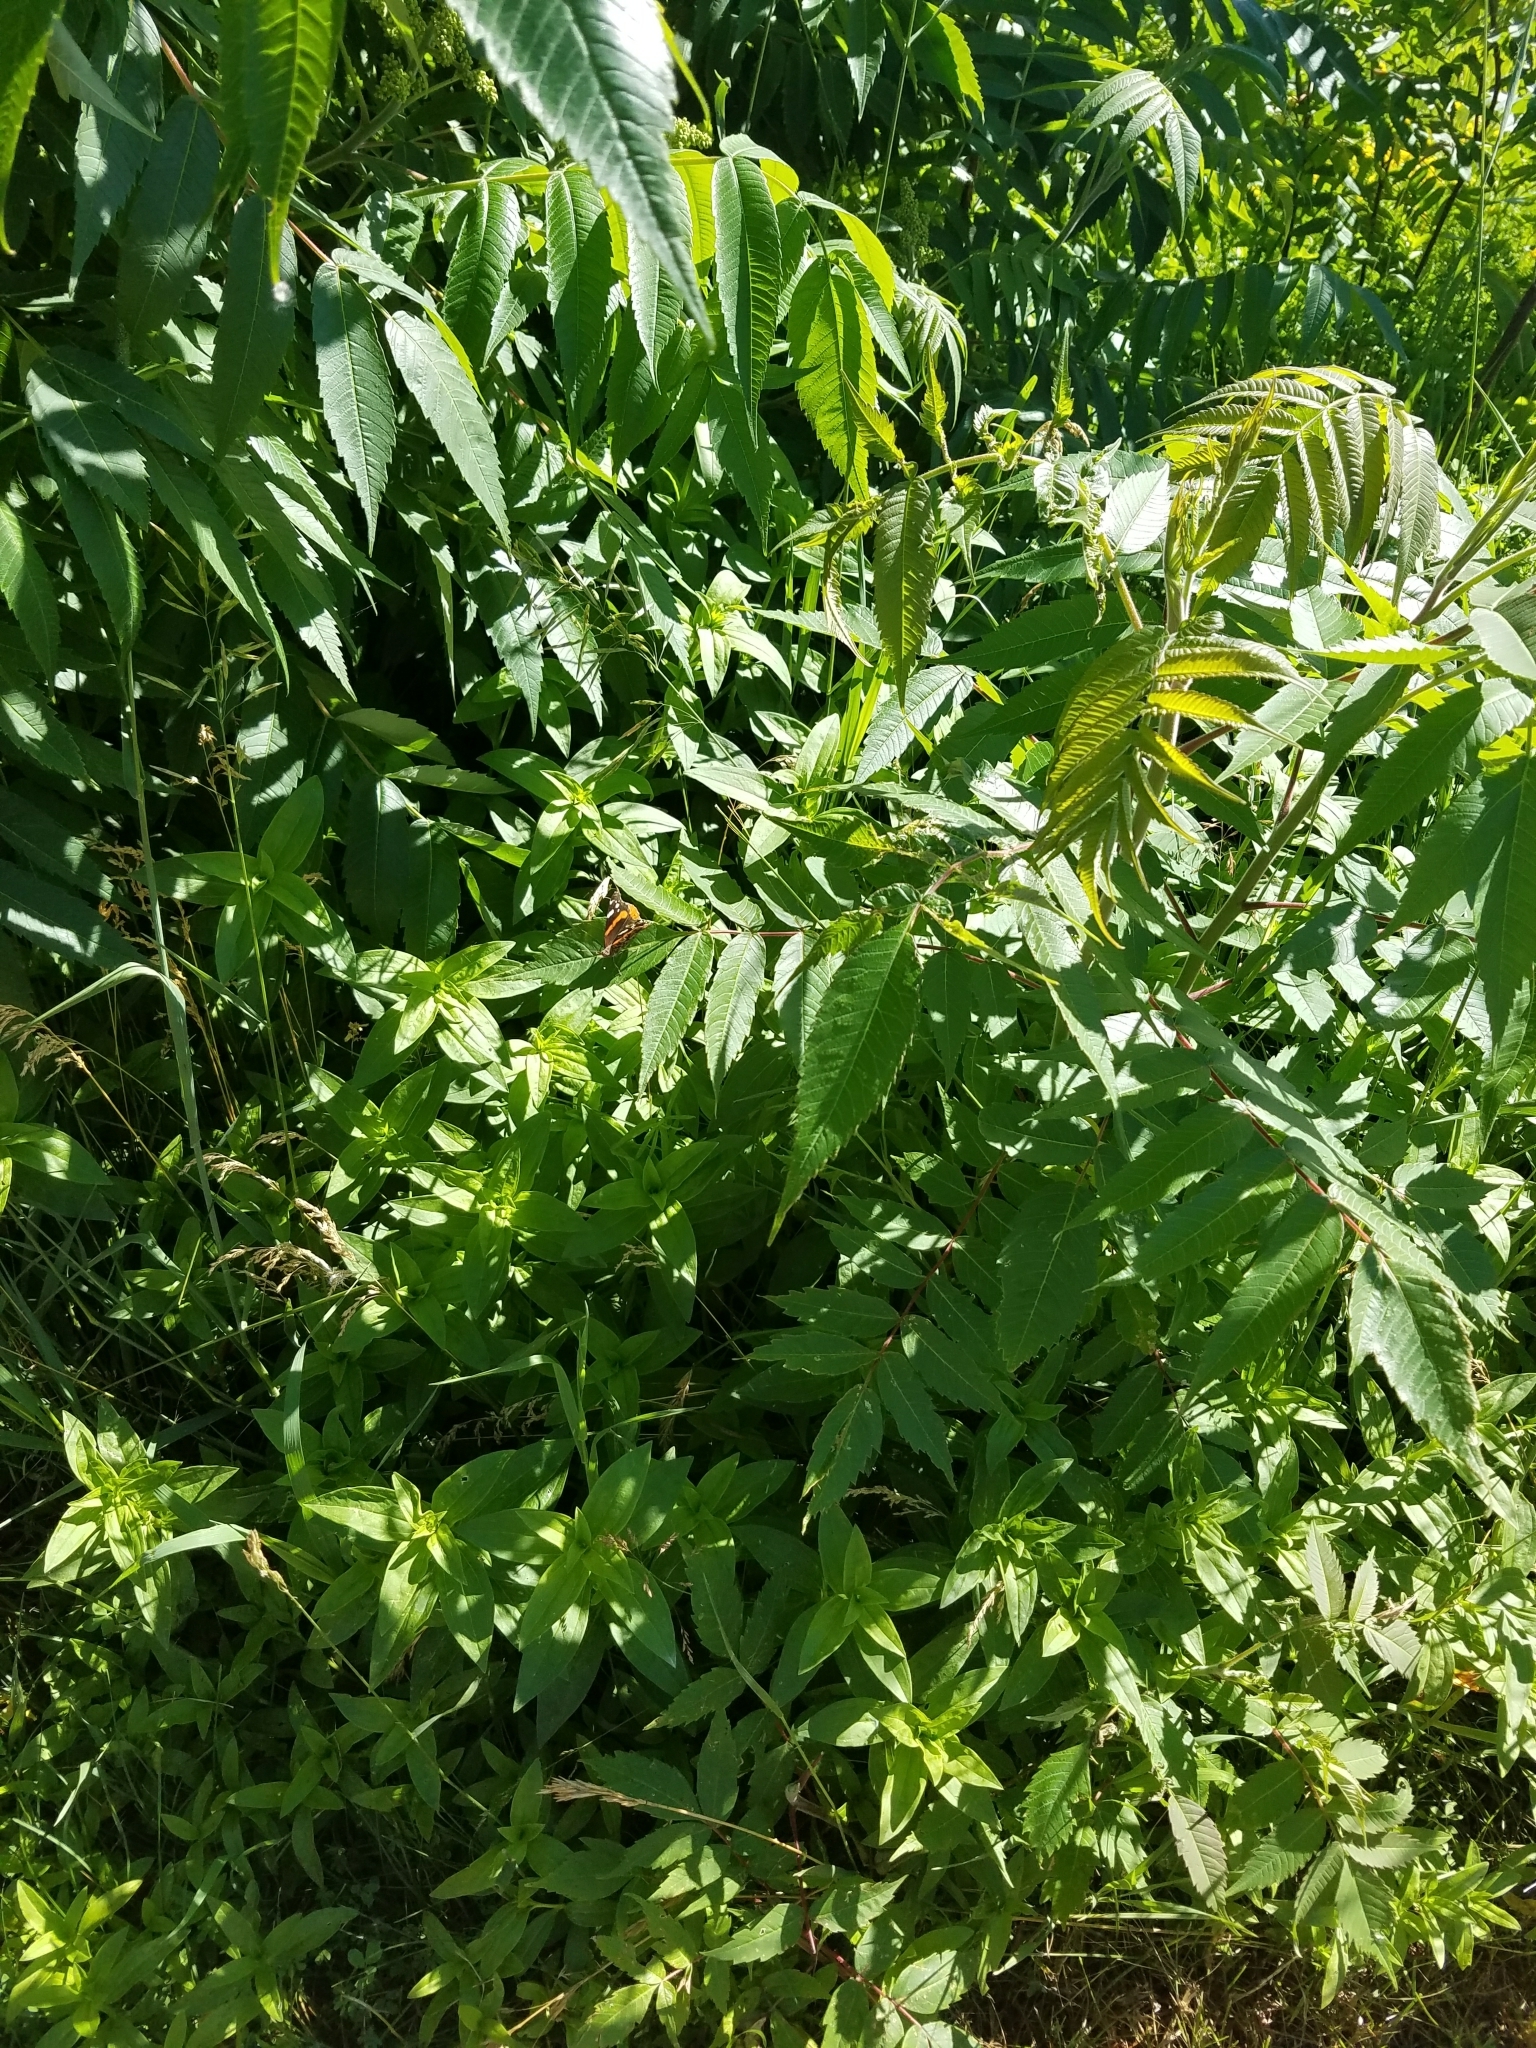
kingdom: Animalia
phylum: Arthropoda
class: Insecta
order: Lepidoptera
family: Nymphalidae
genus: Vanessa
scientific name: Vanessa atalanta
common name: Red admiral
